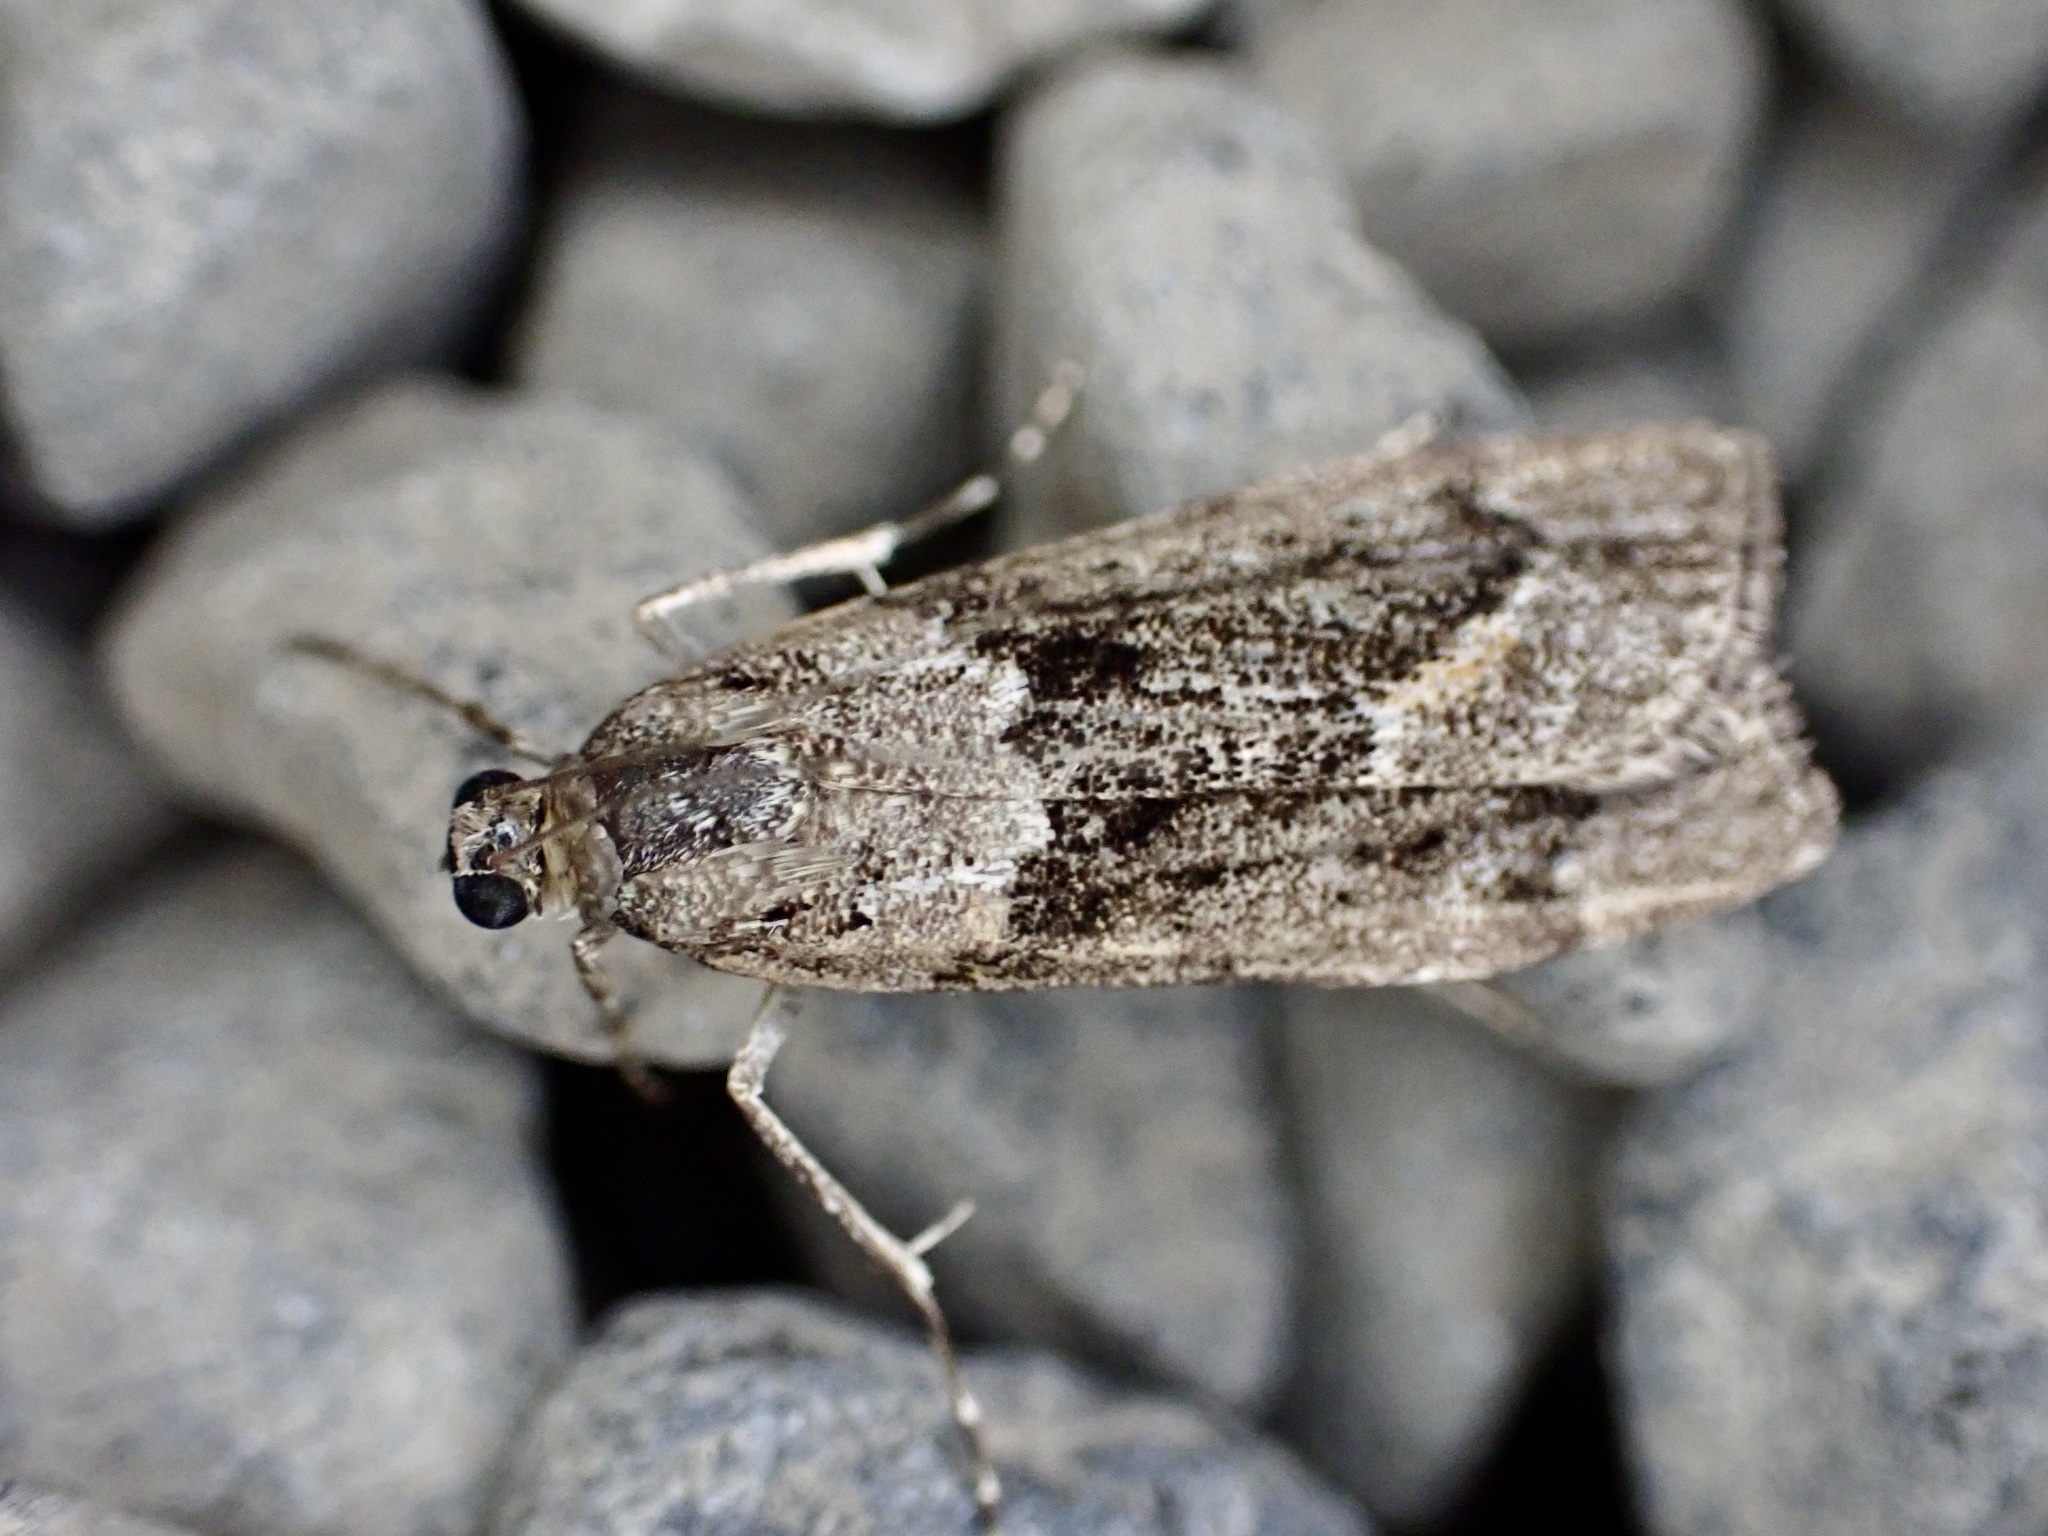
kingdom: Animalia
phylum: Arthropoda
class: Insecta
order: Lepidoptera
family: Crambidae
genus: Eudonia
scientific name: Eudonia submarginalis
